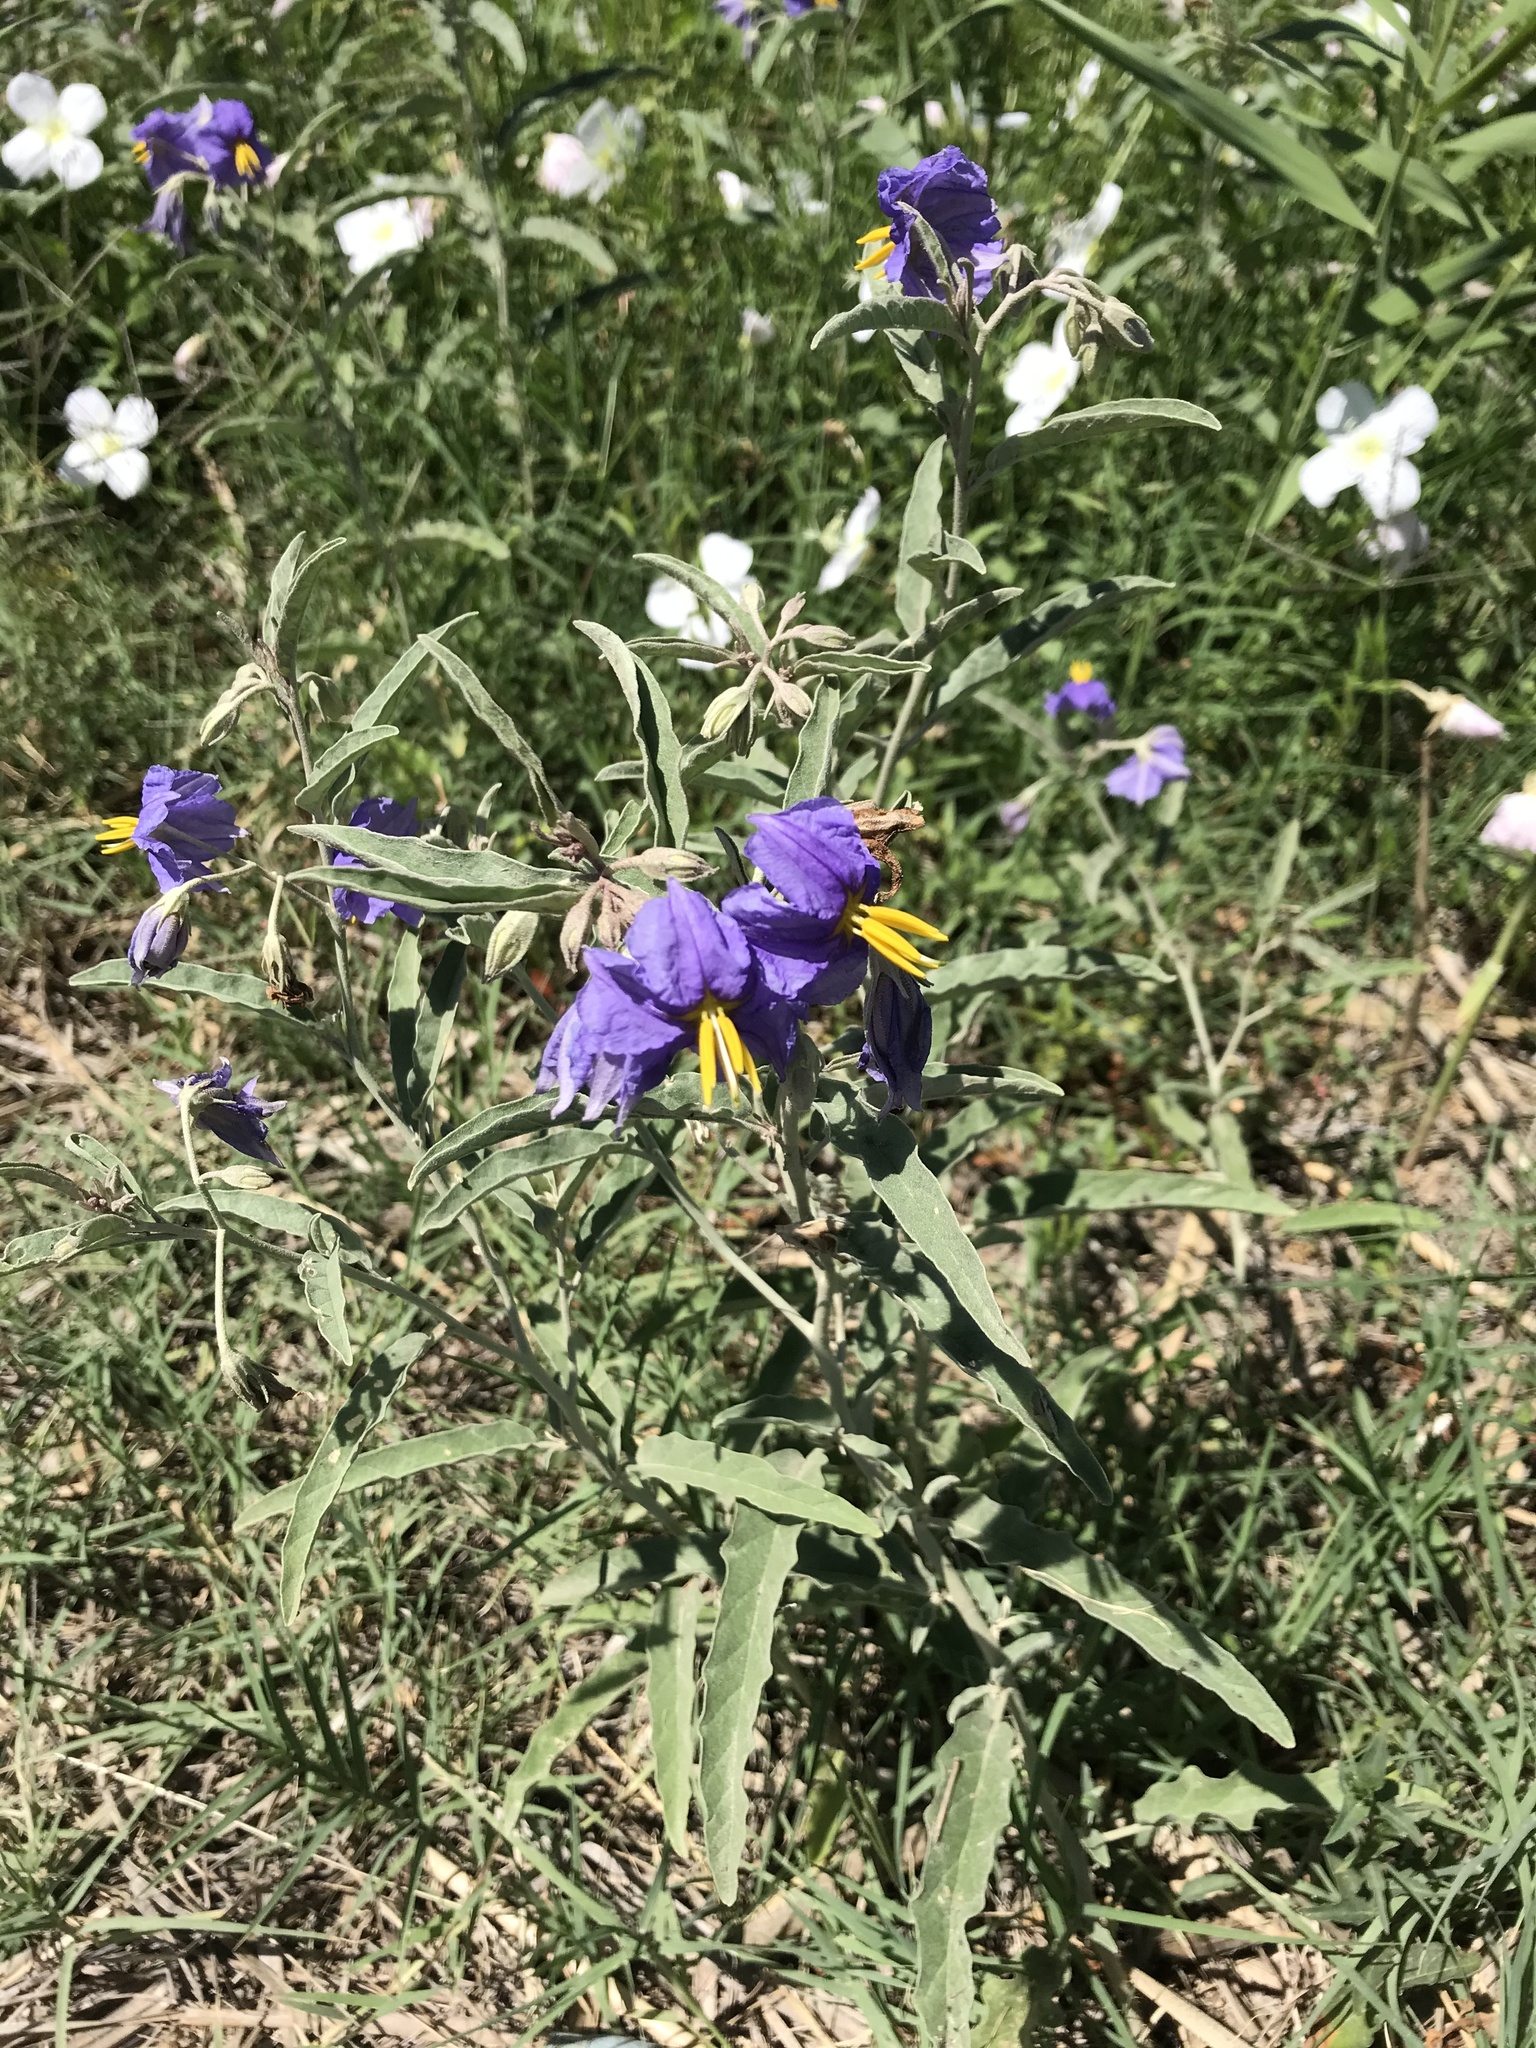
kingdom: Plantae
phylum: Tracheophyta
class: Magnoliopsida
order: Solanales
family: Solanaceae
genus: Solanum
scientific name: Solanum elaeagnifolium
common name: Silverleaf nightshade
